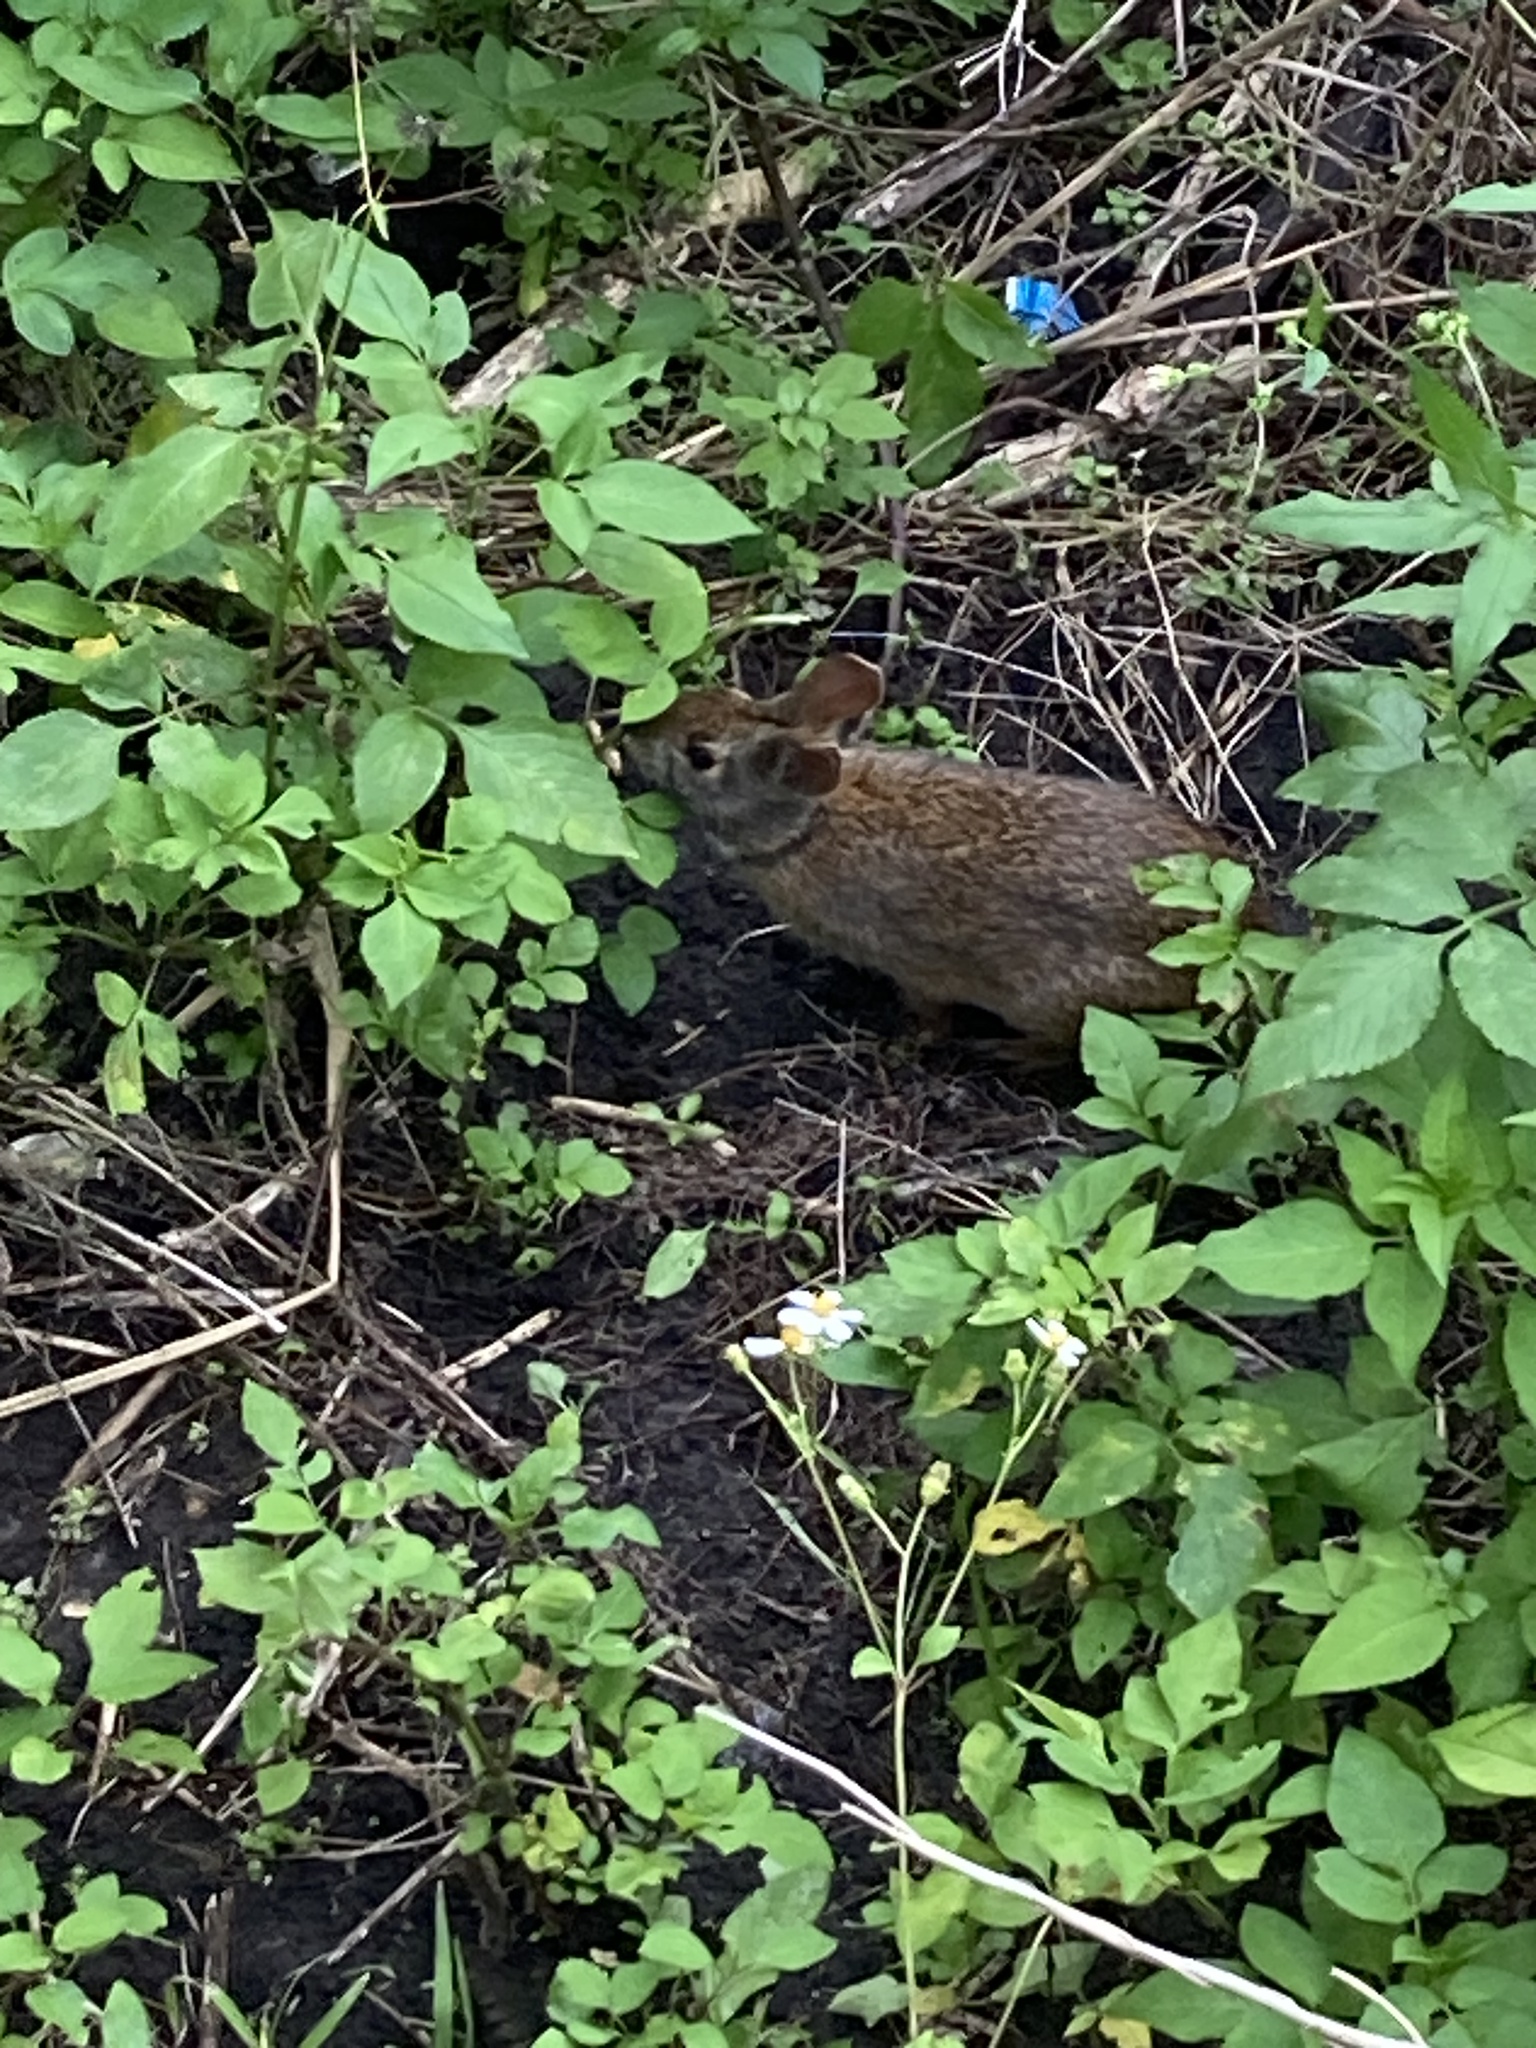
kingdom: Animalia
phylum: Chordata
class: Mammalia
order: Lagomorpha
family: Leporidae
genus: Sylvilagus
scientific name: Sylvilagus palustris
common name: Marsh rabbit
